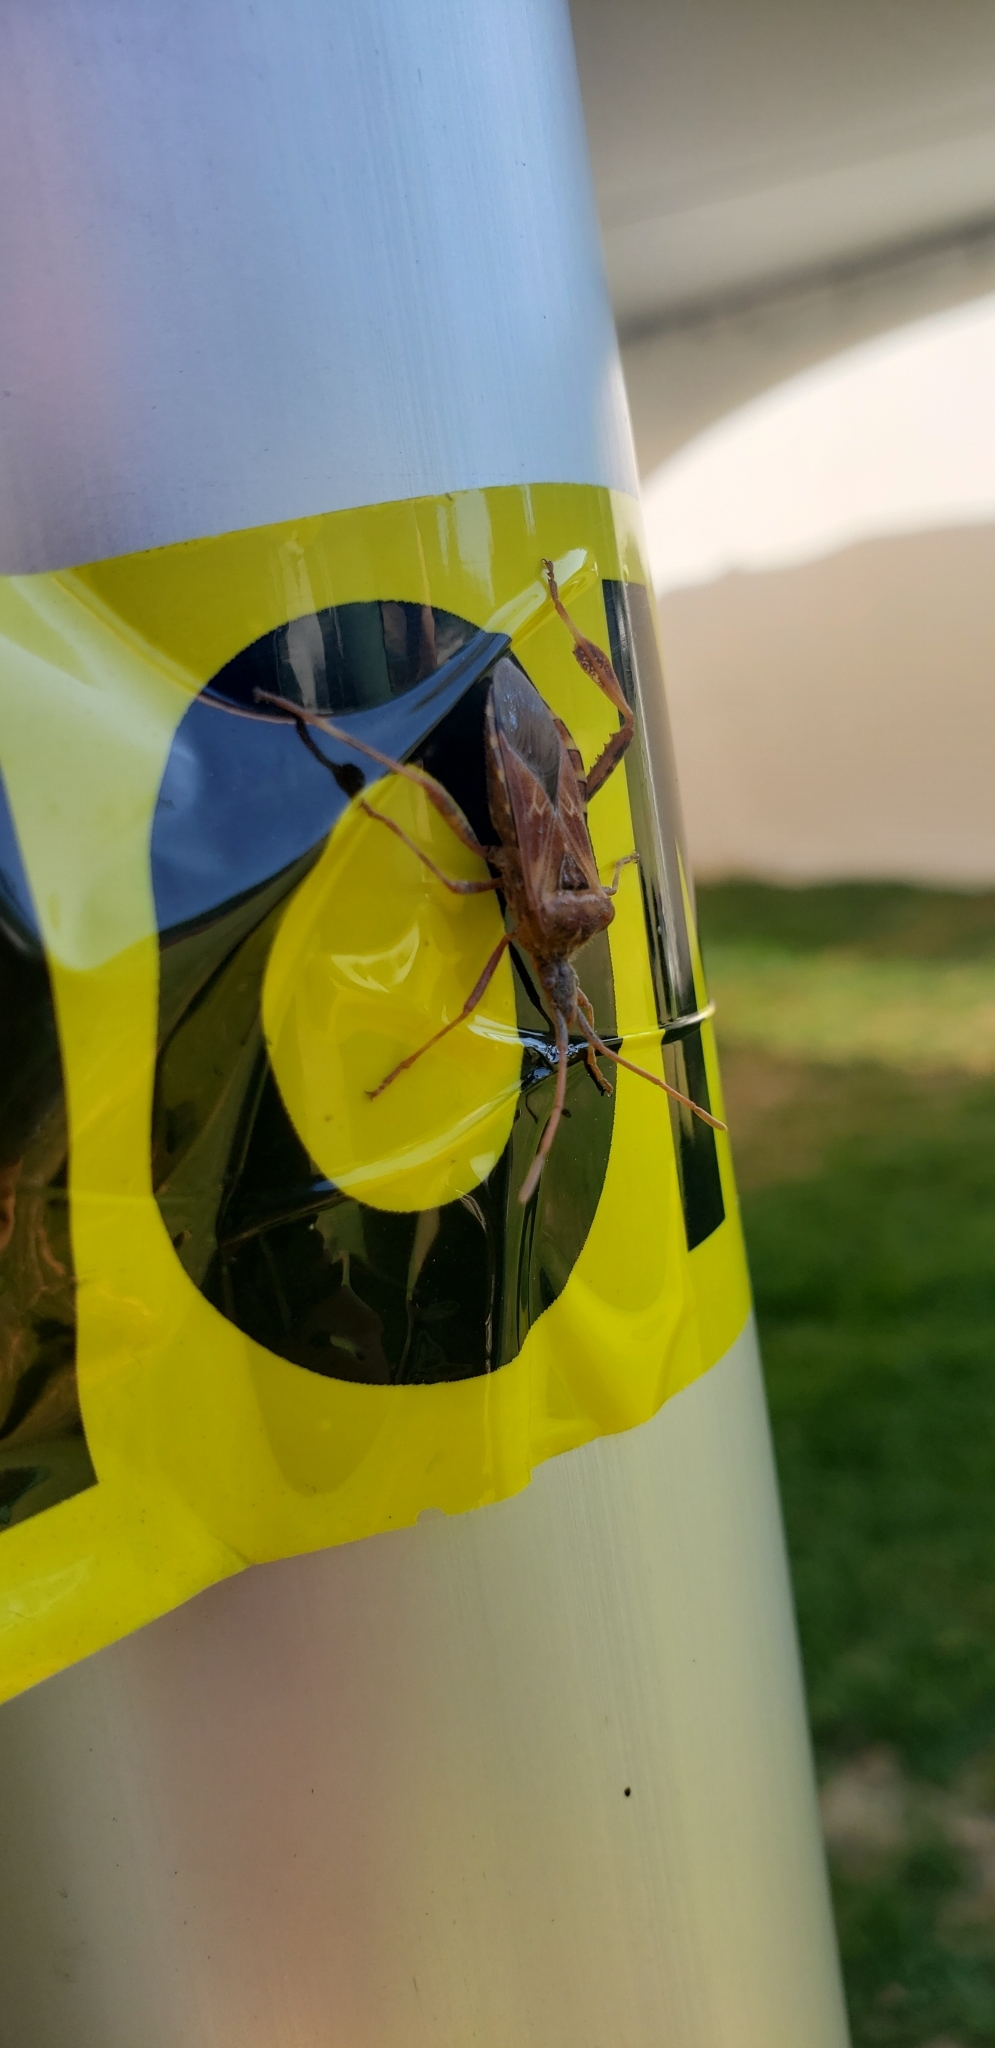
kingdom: Animalia
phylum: Arthropoda
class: Insecta
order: Hemiptera
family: Coreidae
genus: Leptoglossus
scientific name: Leptoglossus occidentalis
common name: Western conifer-seed bug
